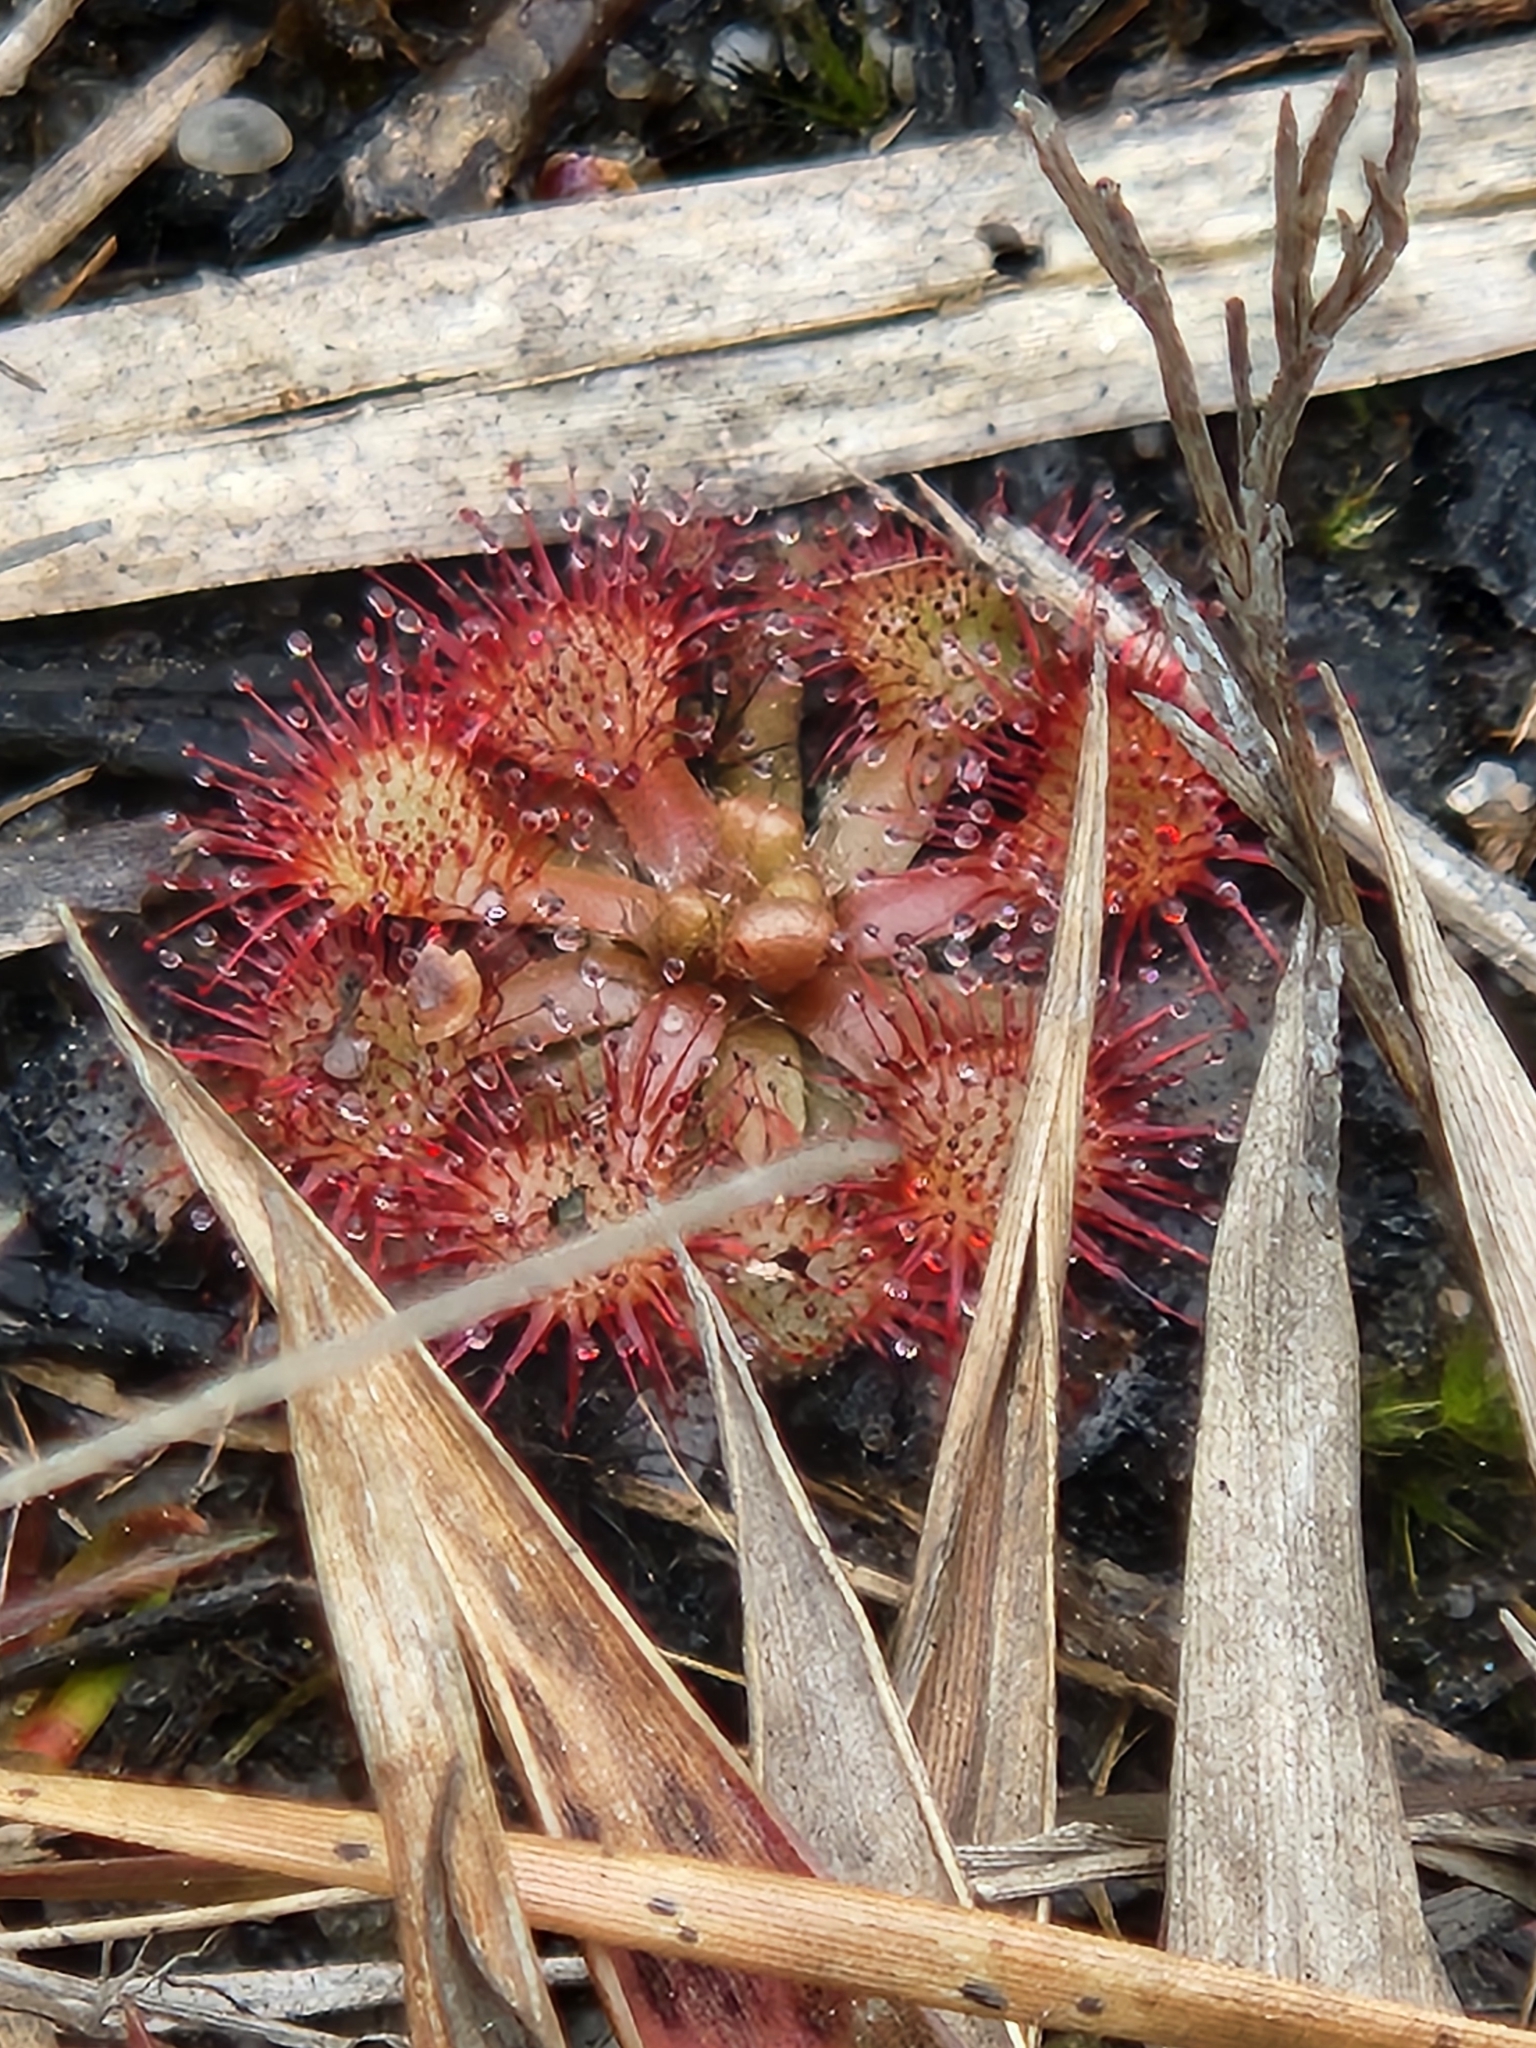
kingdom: Plantae
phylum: Tracheophyta
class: Magnoliopsida
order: Caryophyllales
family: Droseraceae
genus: Drosera
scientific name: Drosera capillaris
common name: Pink sundew
